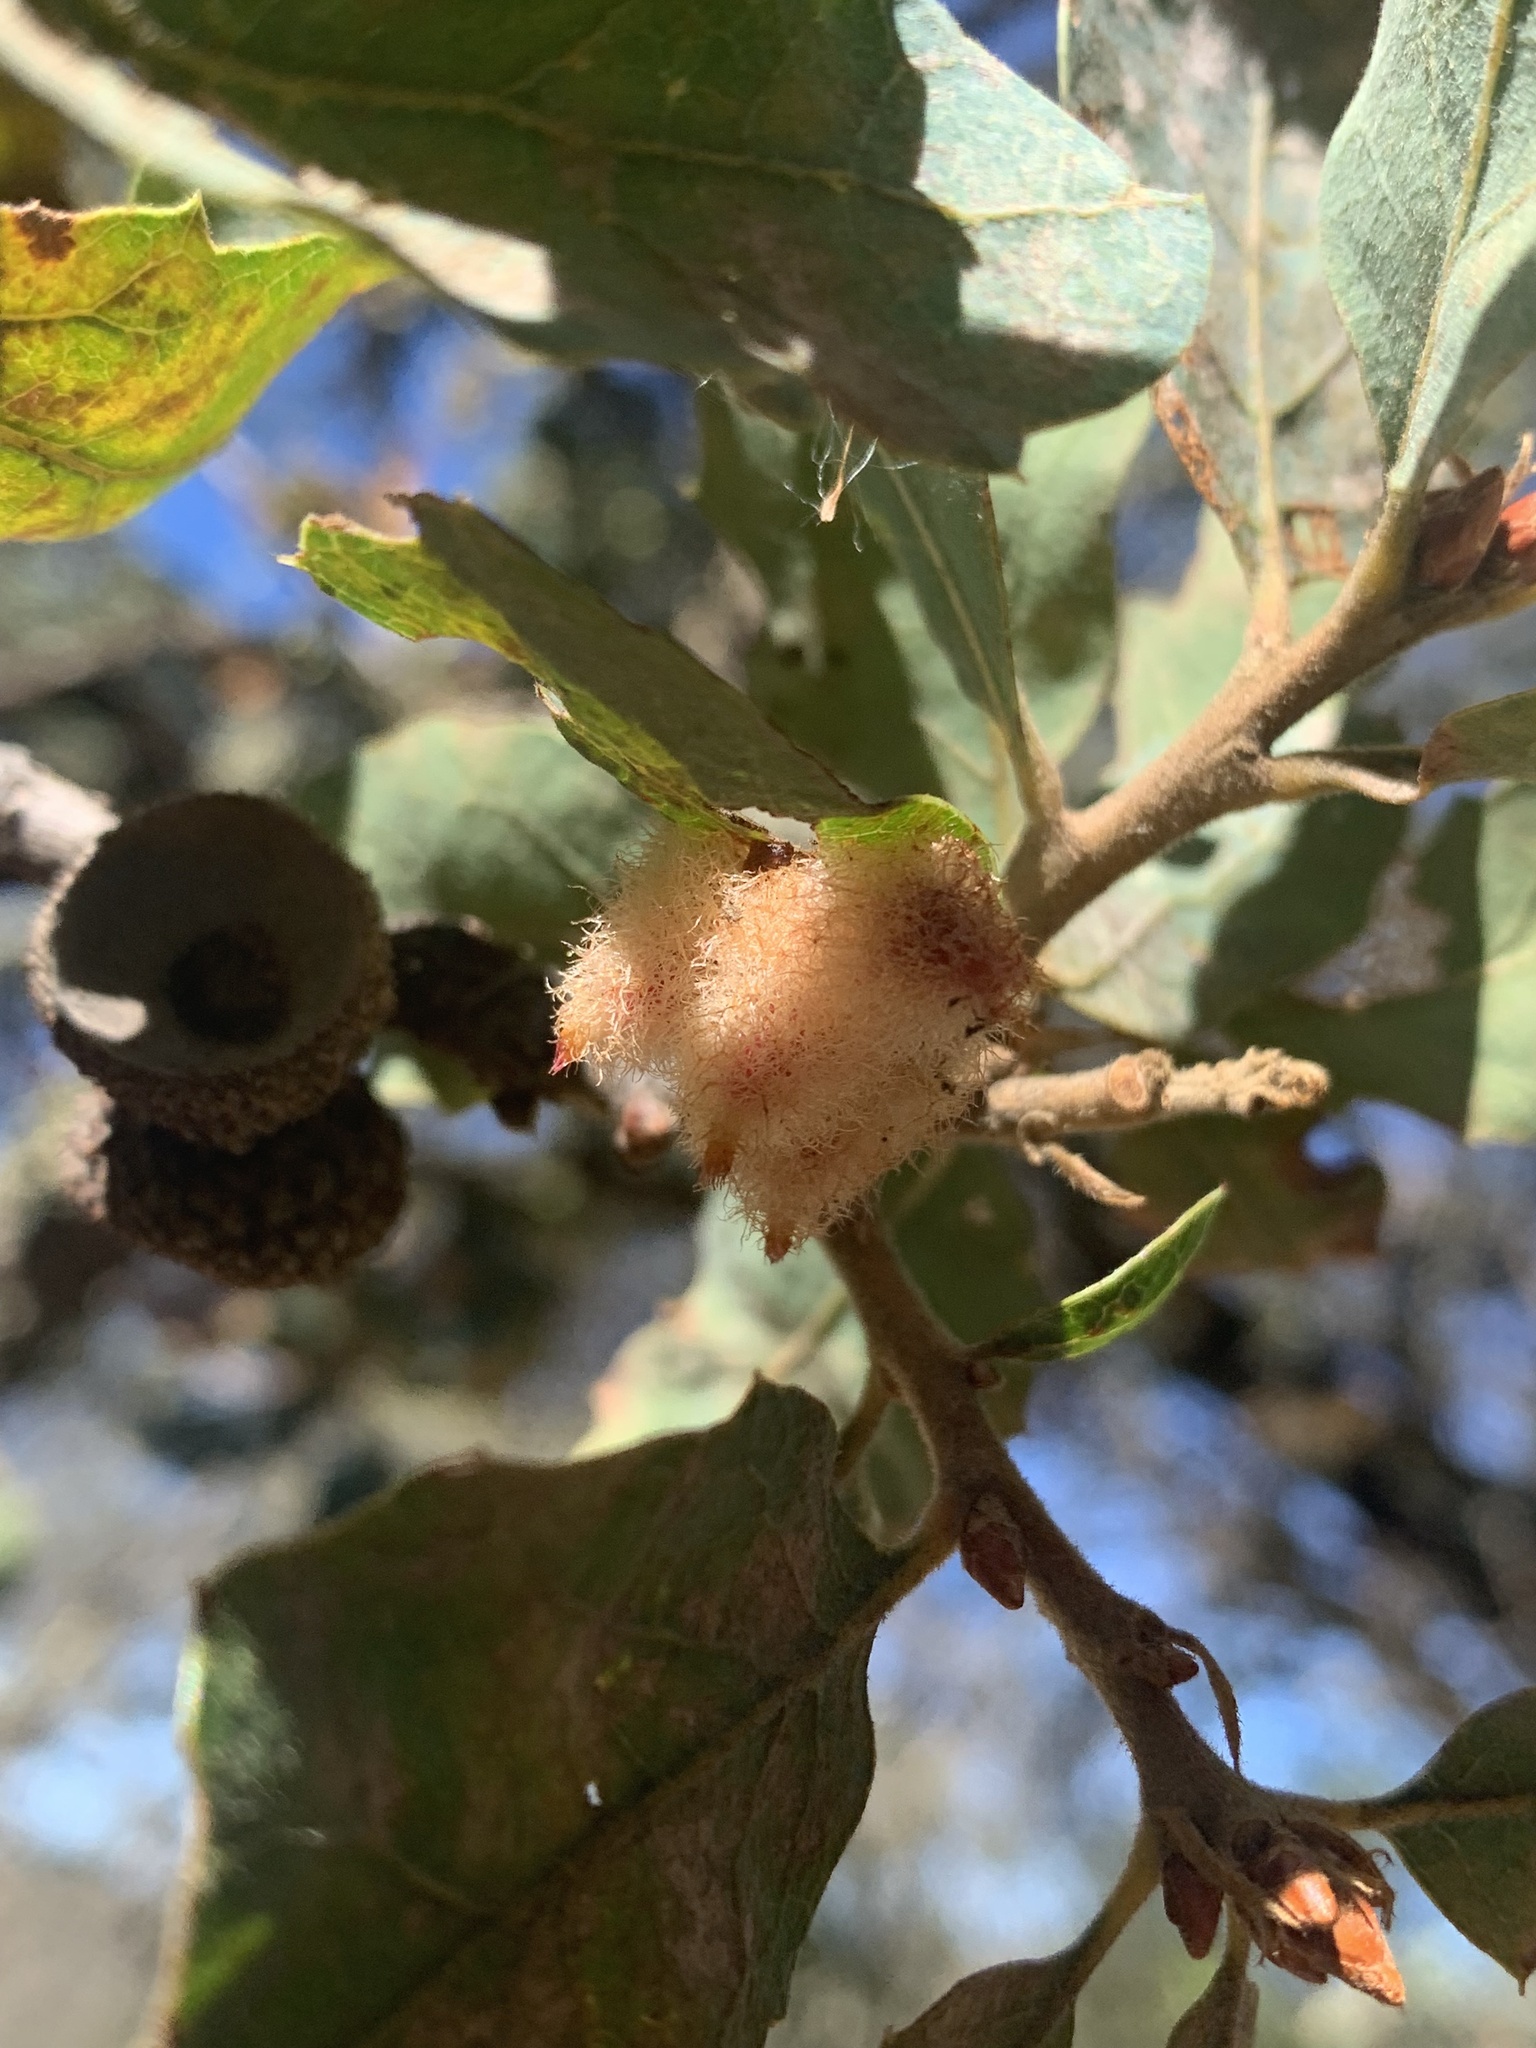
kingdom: Animalia
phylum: Arthropoda
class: Insecta
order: Hymenoptera
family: Cynipidae
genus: Andricus
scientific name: Andricus
